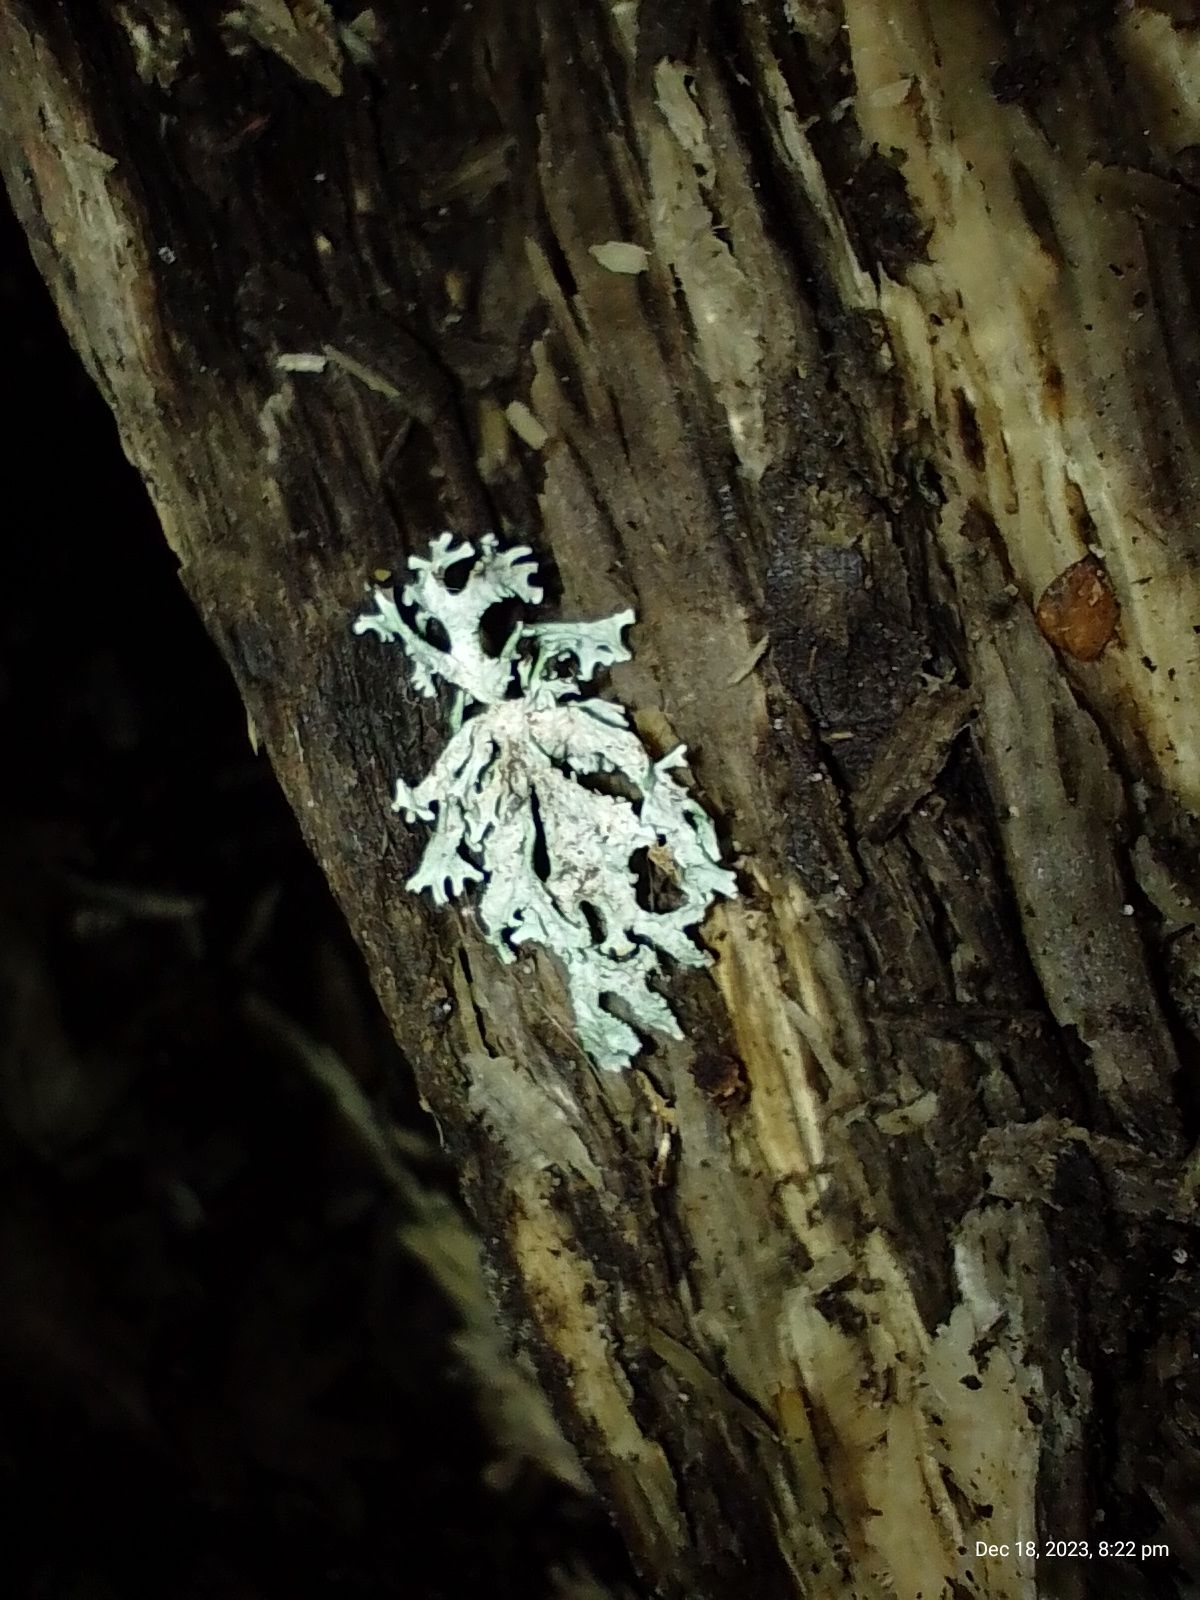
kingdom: Fungi
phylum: Ascomycota
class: Lecanoromycetes
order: Lecanorales
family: Parmeliaceae
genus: Evernia
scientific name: Evernia prunastri
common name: Oak moss
